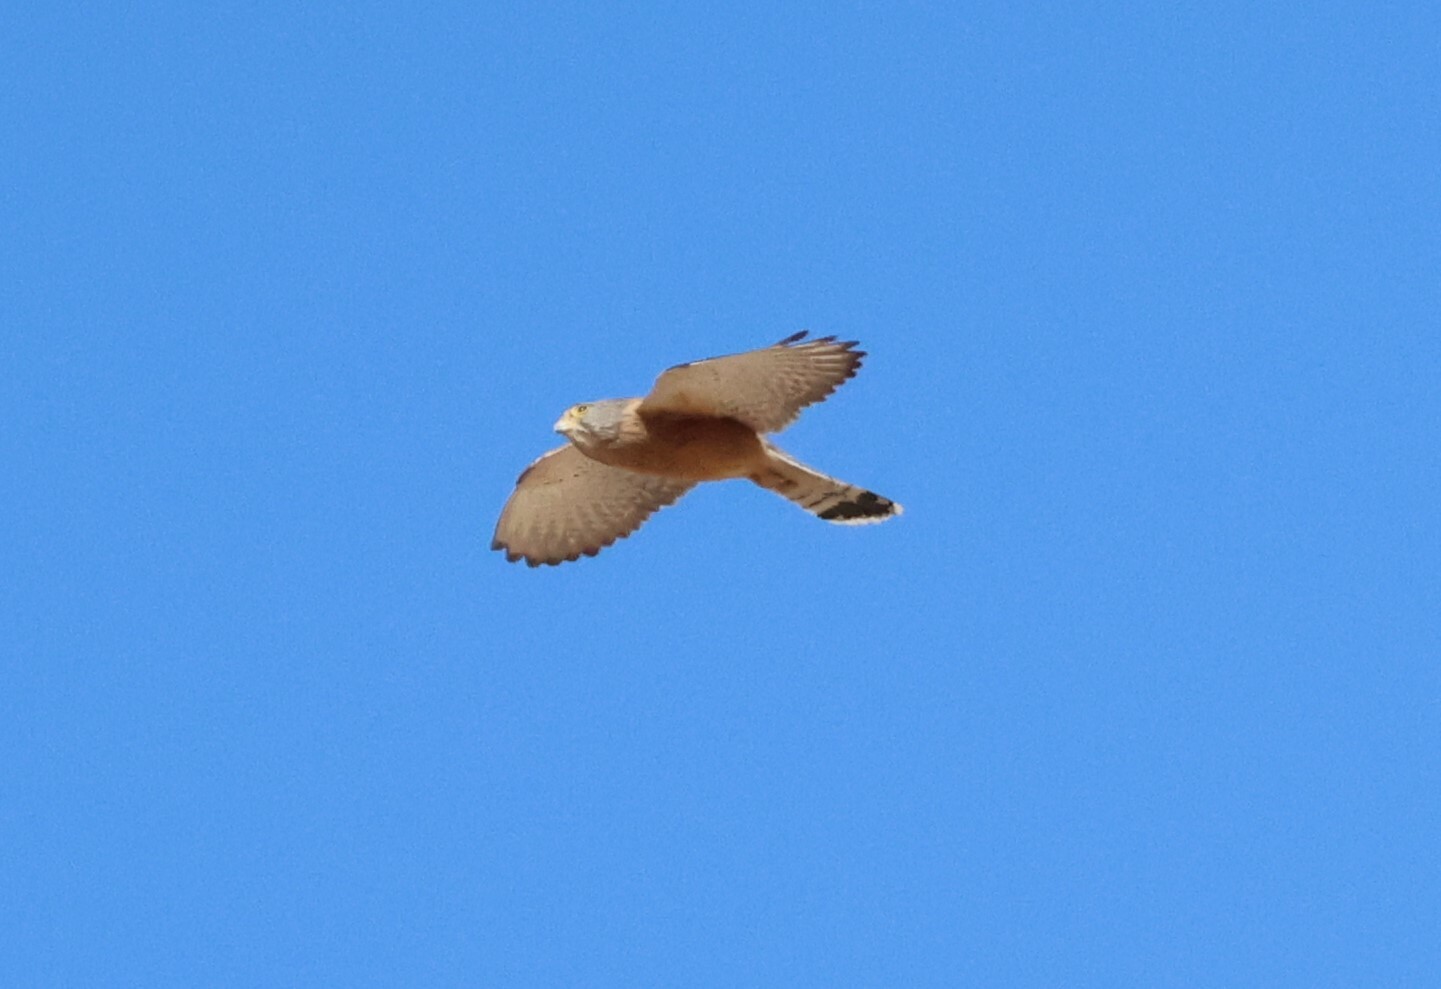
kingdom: Animalia
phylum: Chordata
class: Aves
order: Falconiformes
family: Falconidae
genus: Falco
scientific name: Falco rupicolus
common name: Rock kestrel
